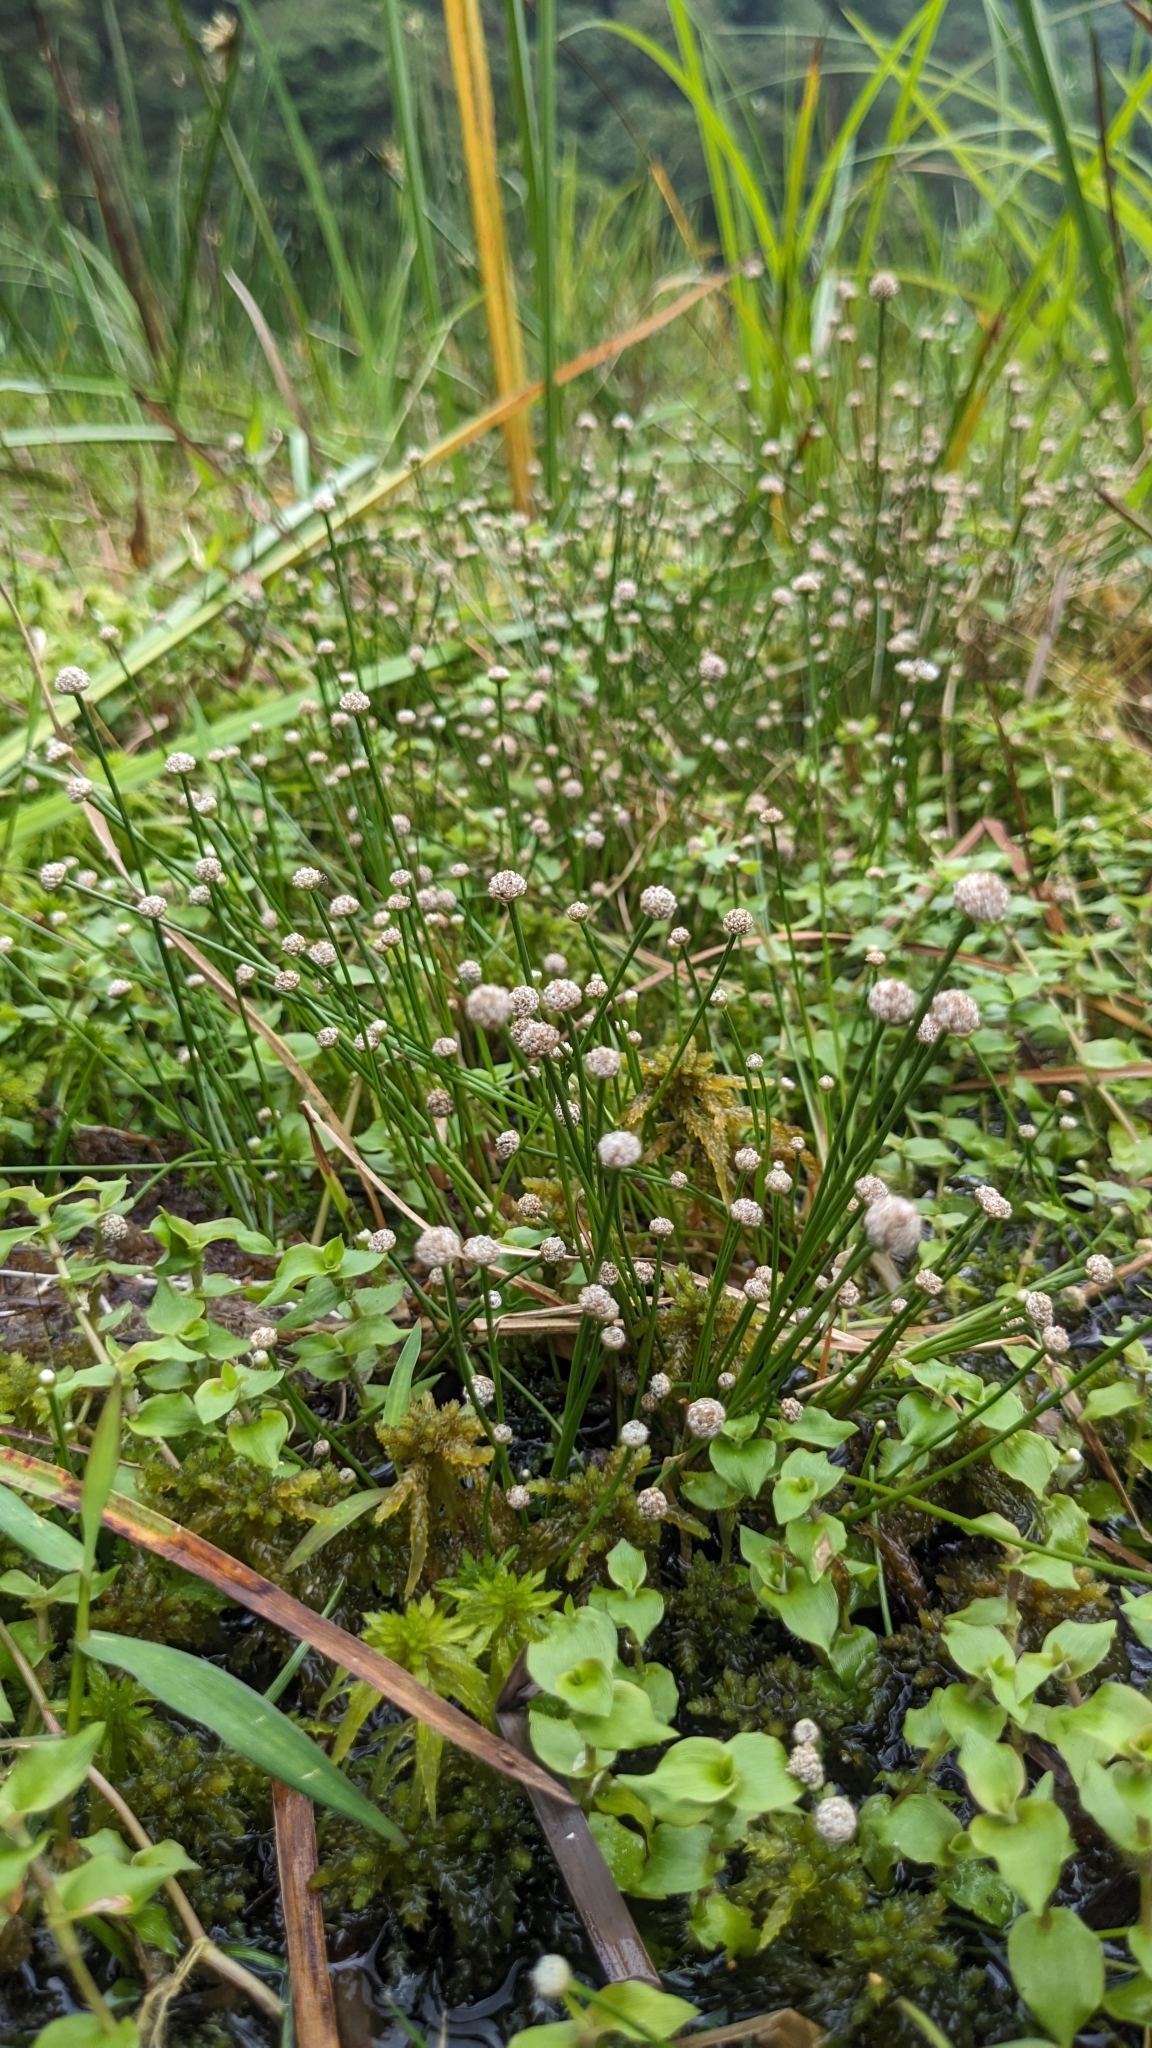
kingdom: Plantae
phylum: Tracheophyta
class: Liliopsida
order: Poales
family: Eriocaulaceae
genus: Eriocaulon
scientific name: Eriocaulon buergerianum
